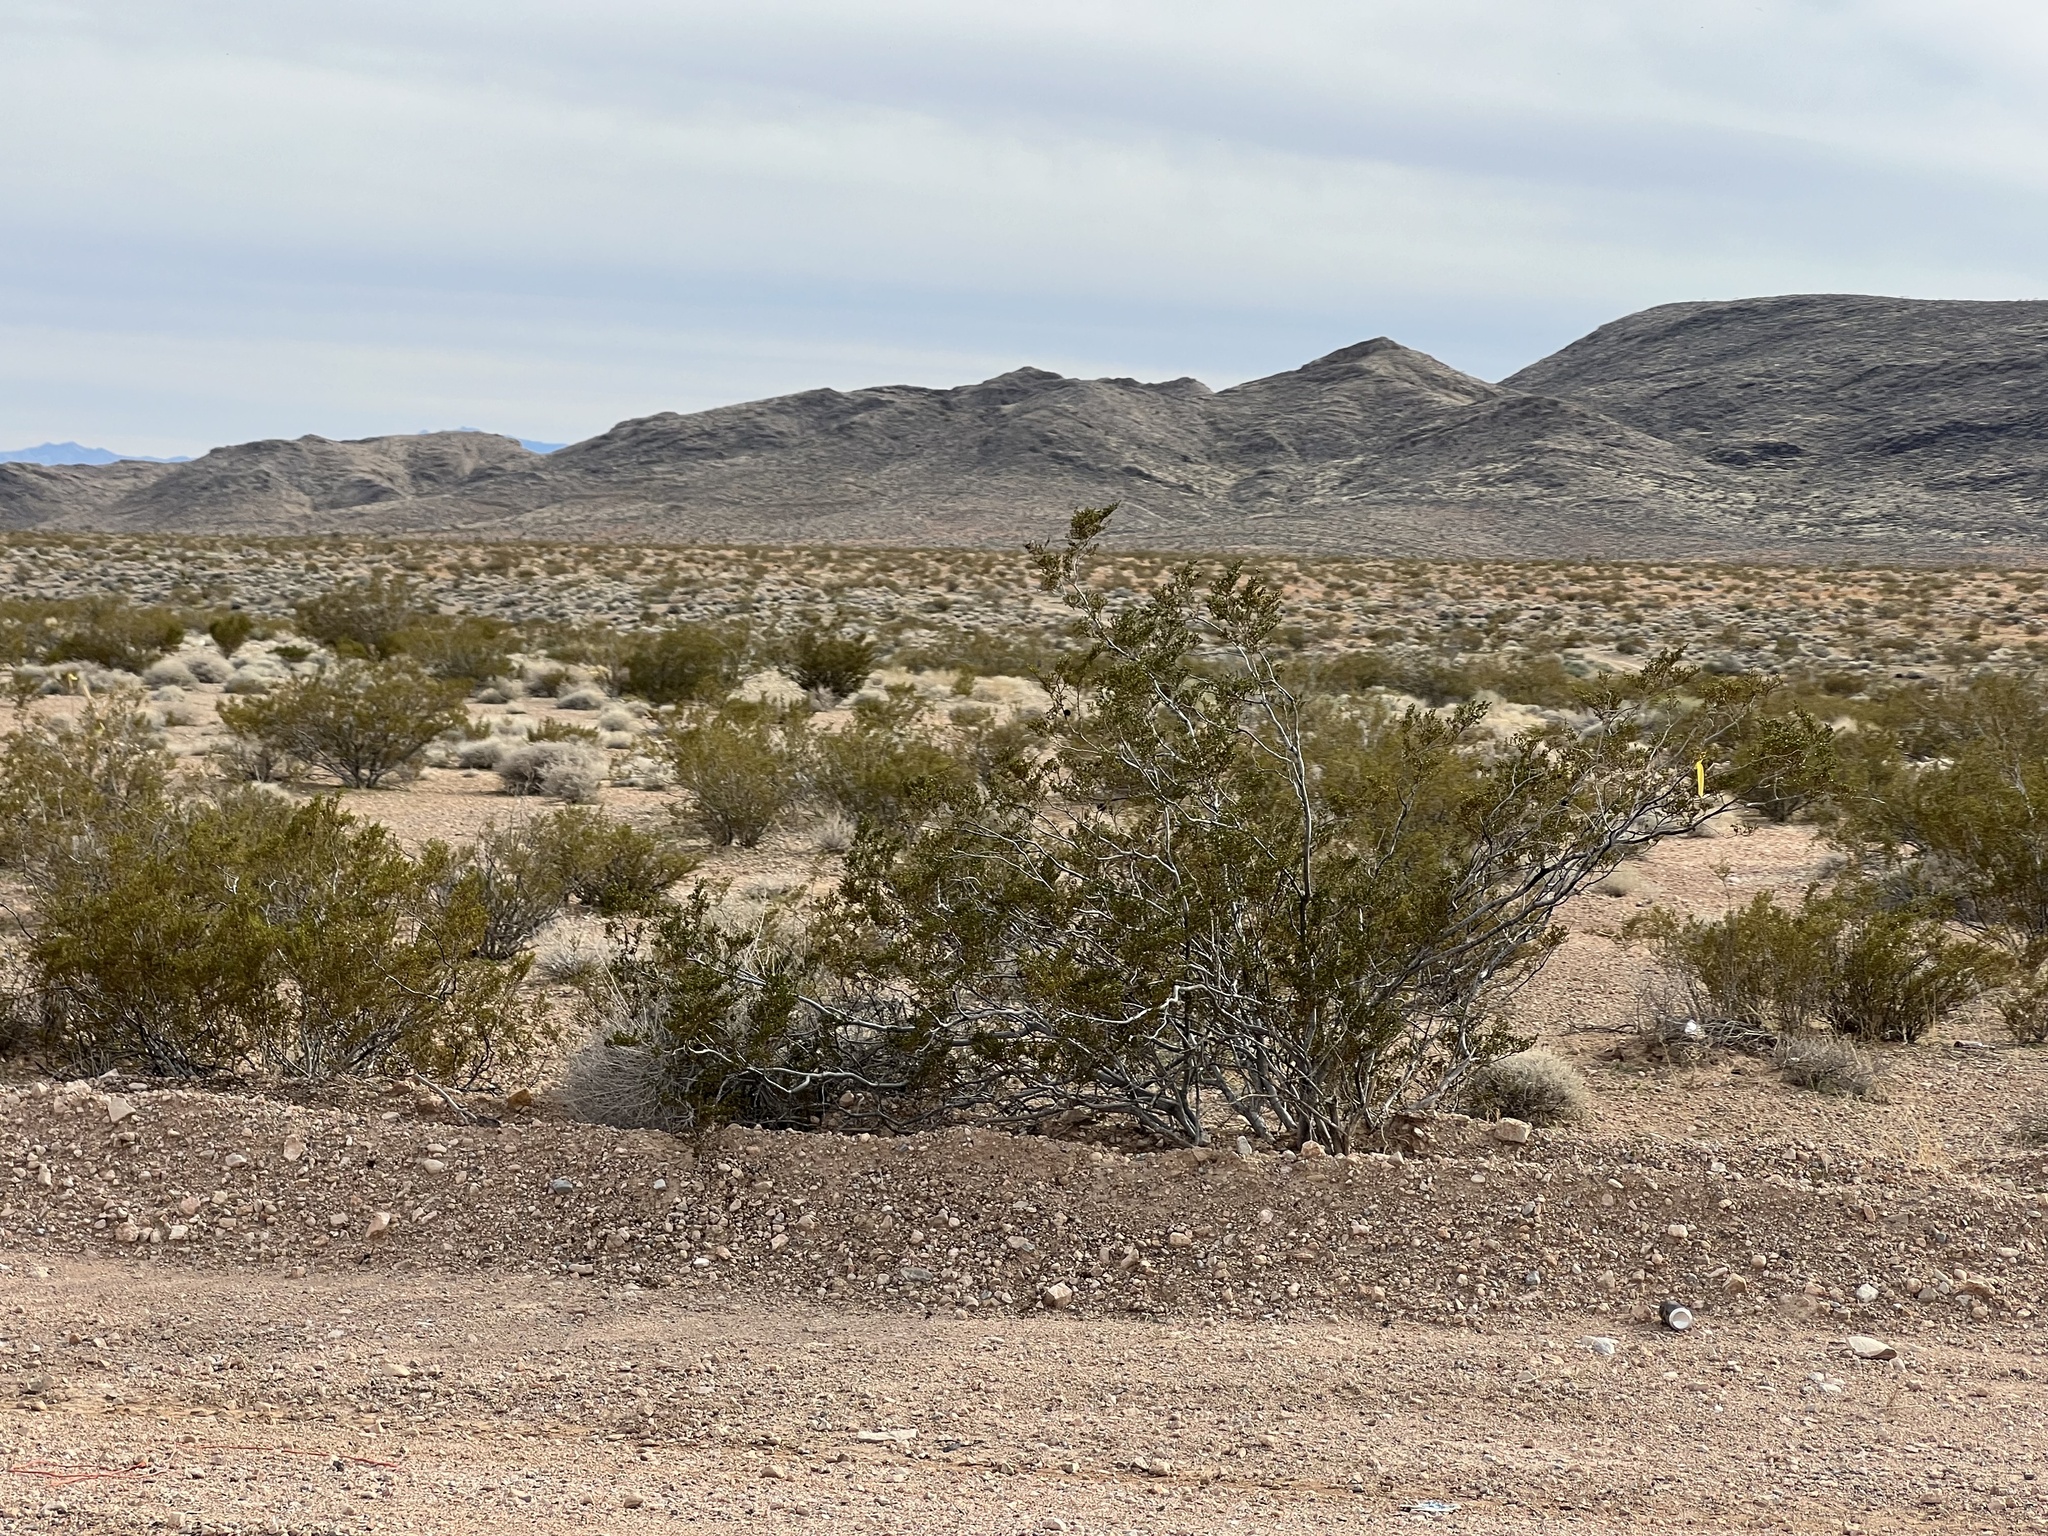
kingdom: Plantae
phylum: Tracheophyta
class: Magnoliopsida
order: Zygophyllales
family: Zygophyllaceae
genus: Larrea
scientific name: Larrea tridentata
